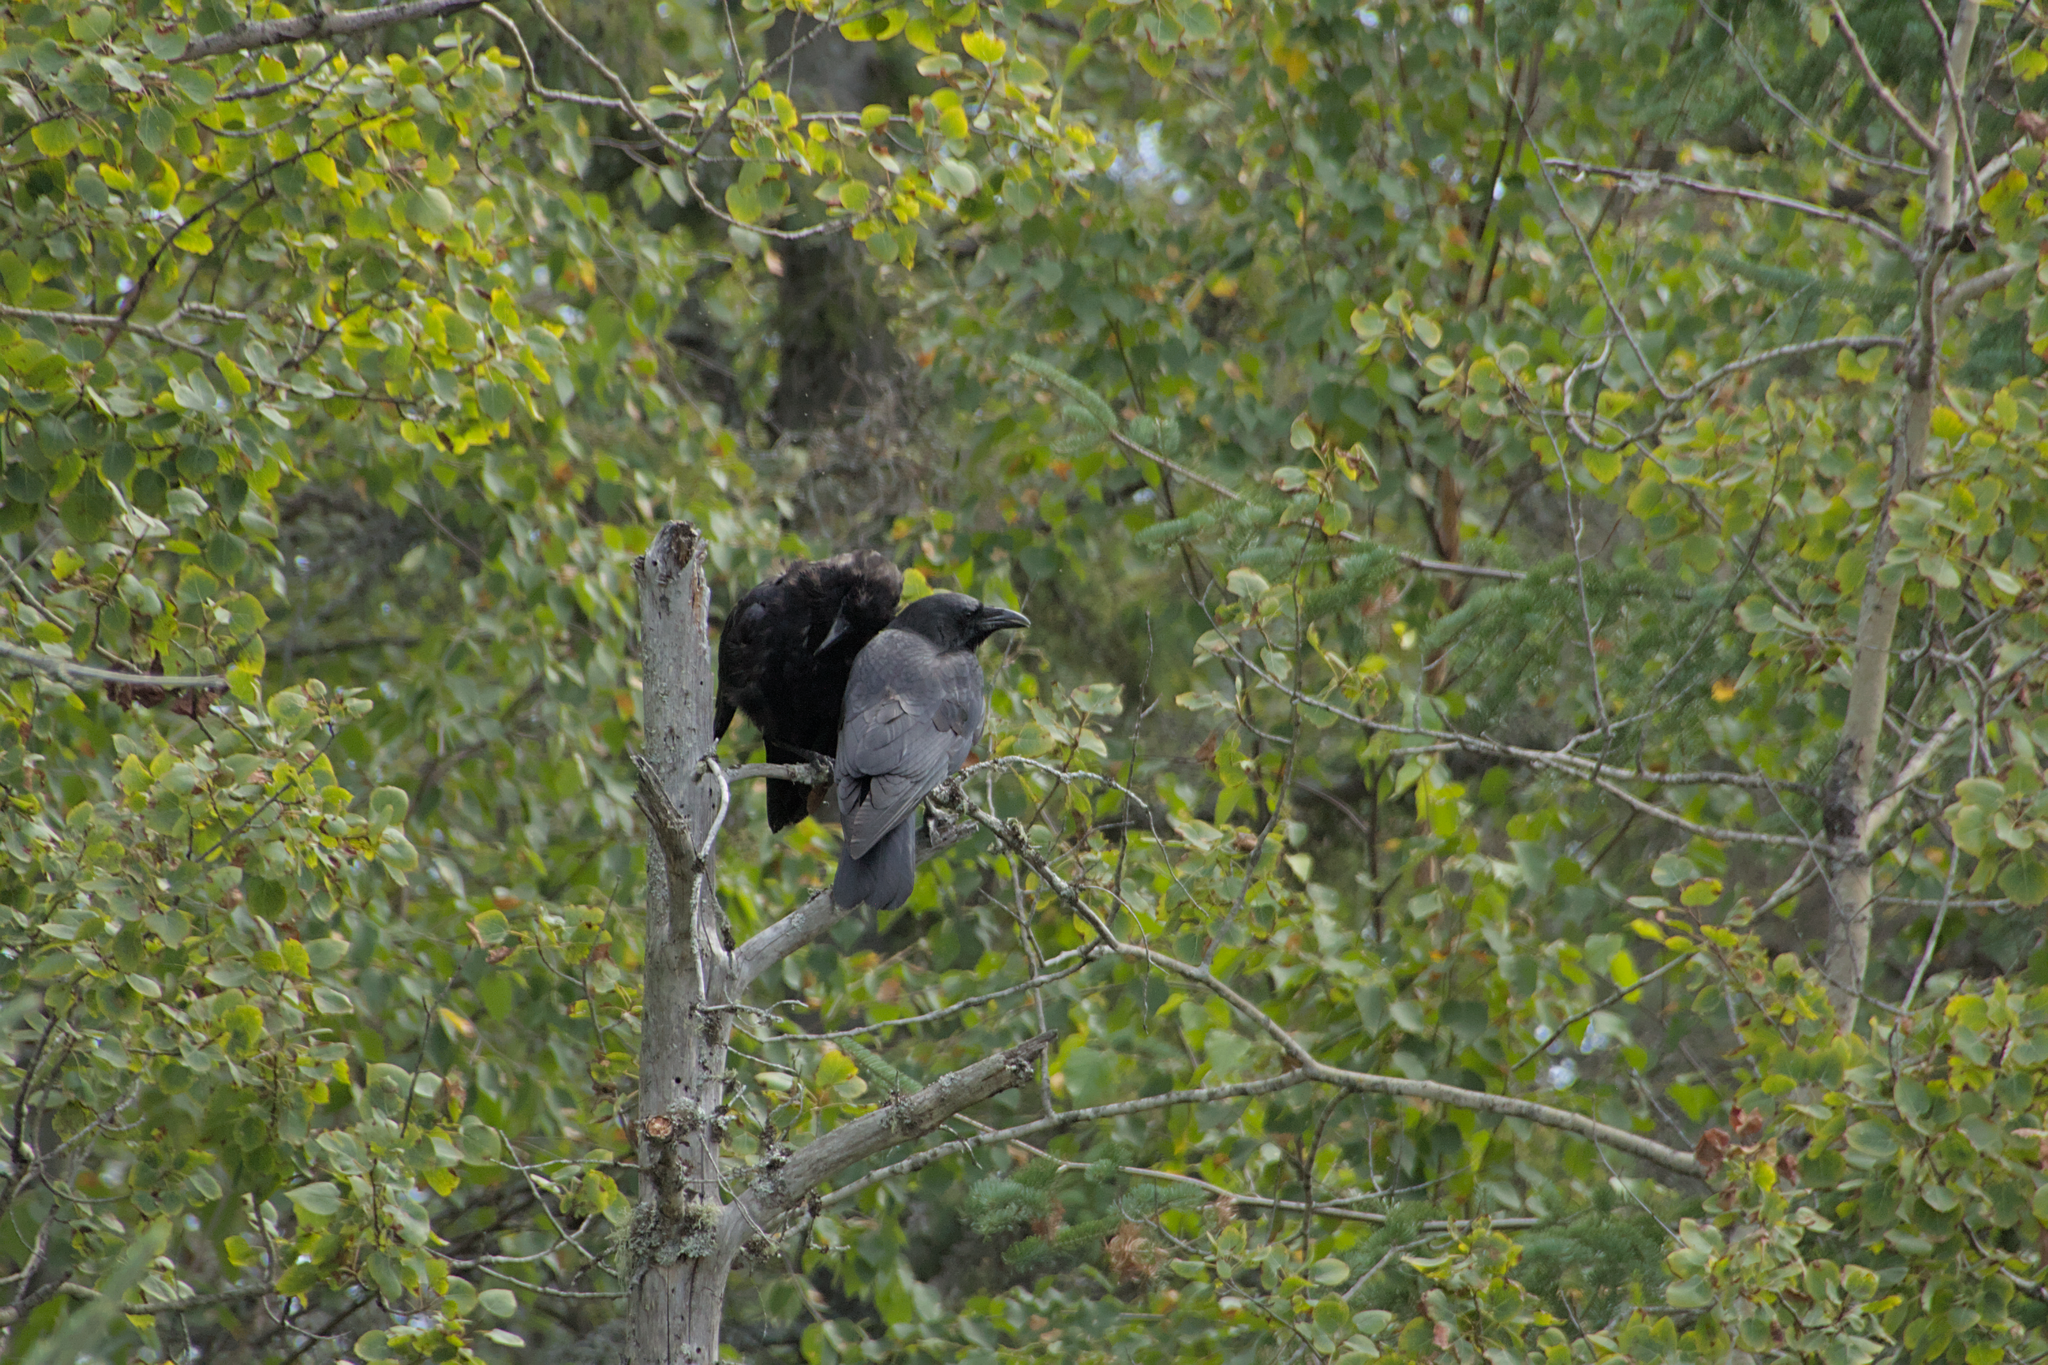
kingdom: Animalia
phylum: Chordata
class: Aves
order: Passeriformes
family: Corvidae
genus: Corvus
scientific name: Corvus corax
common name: Common raven
